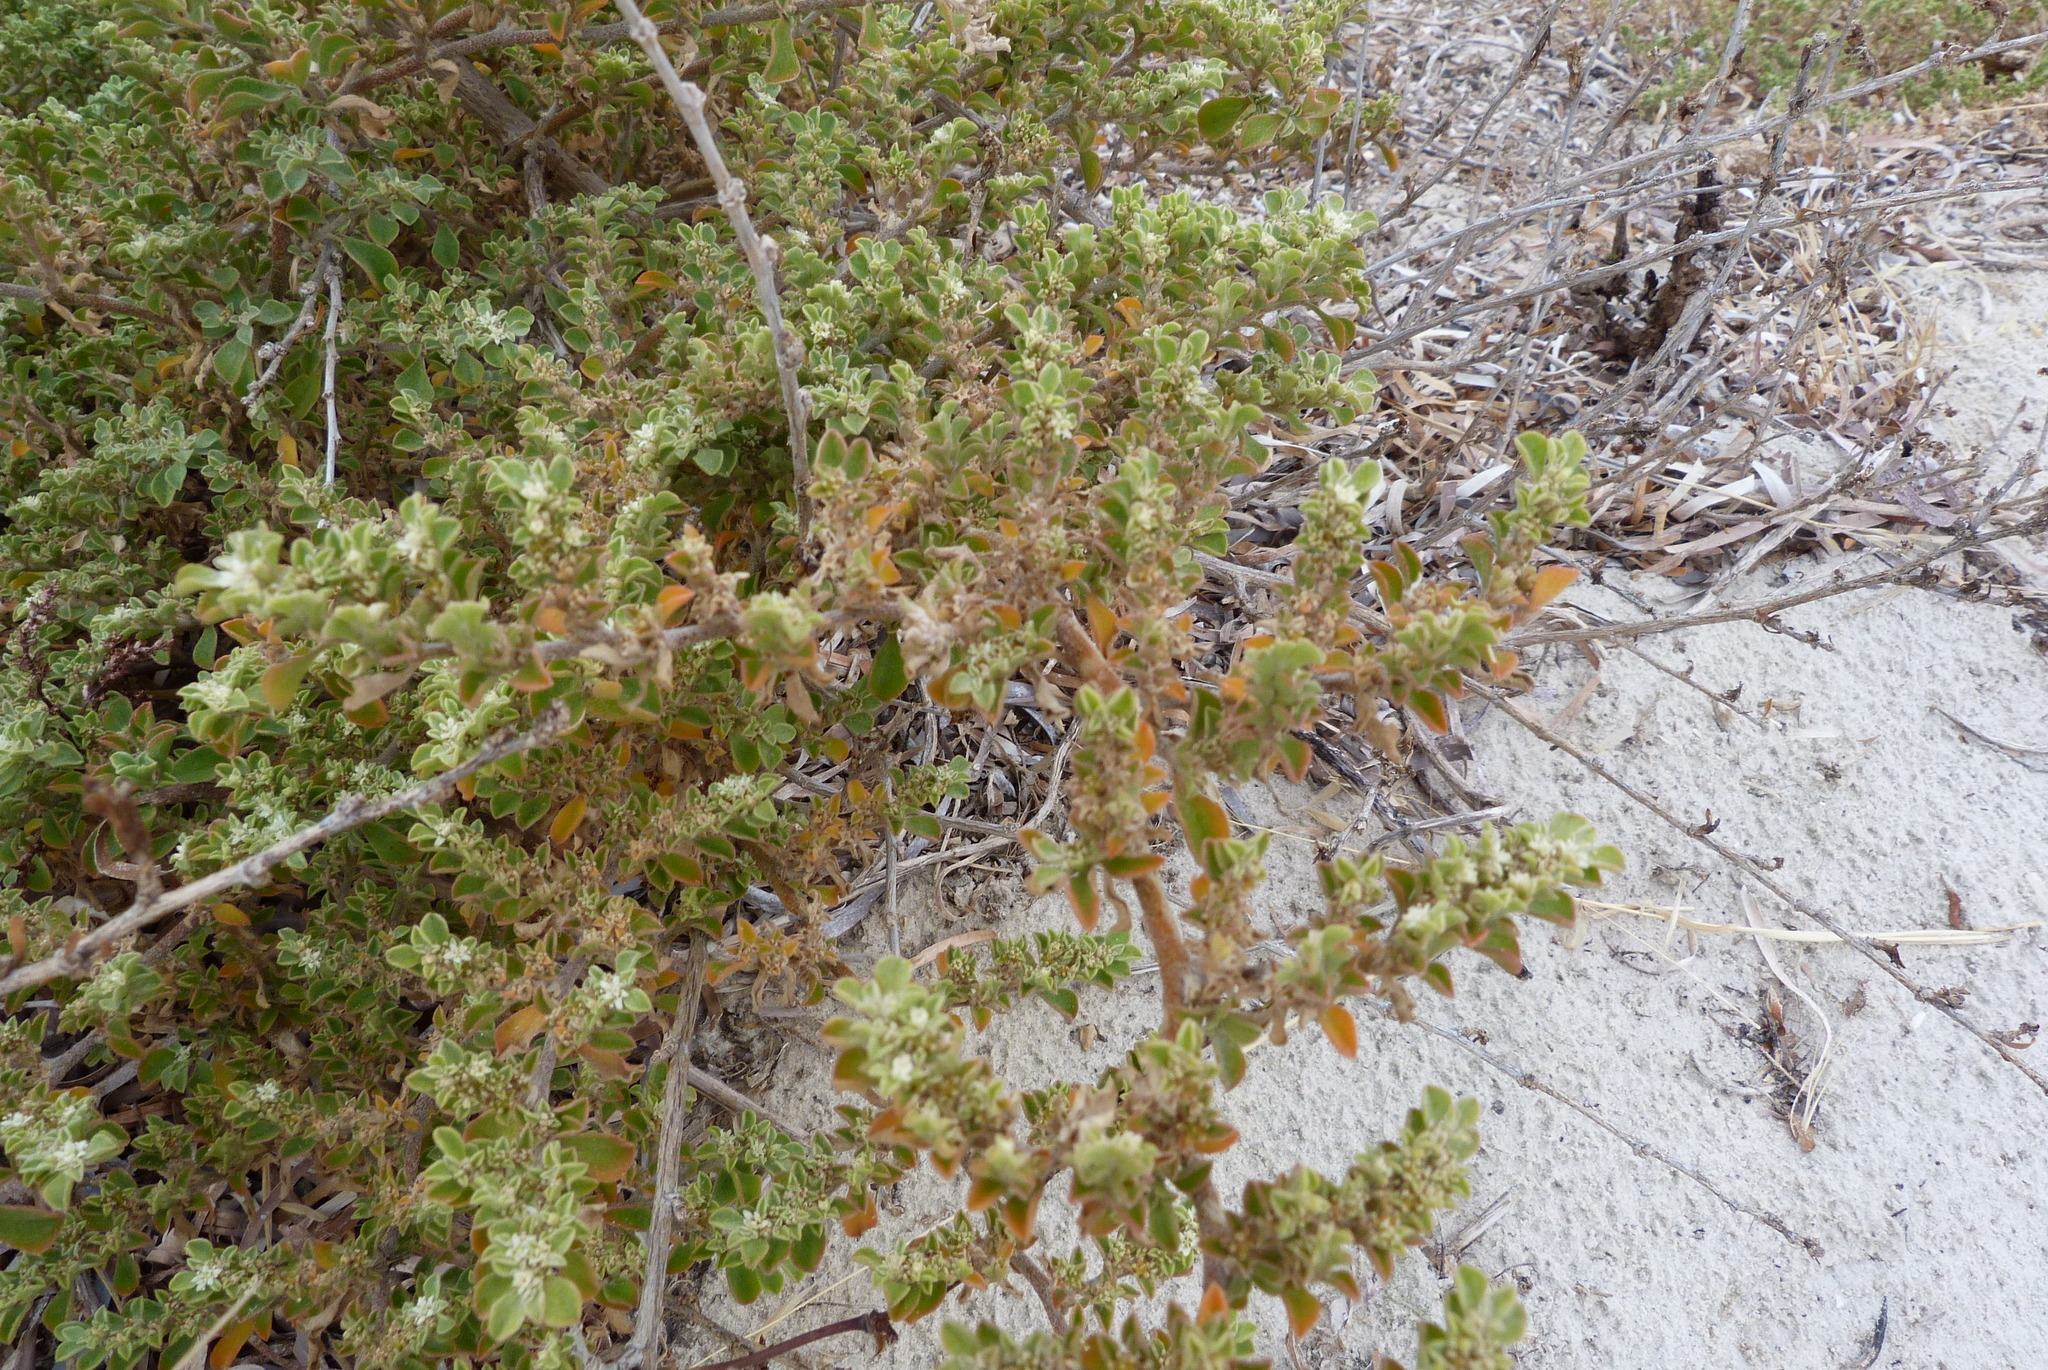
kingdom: Plantae
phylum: Tracheophyta
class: Magnoliopsida
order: Caryophyllales
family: Aizoaceae
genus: Aizoon
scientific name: Aizoon pubescens
